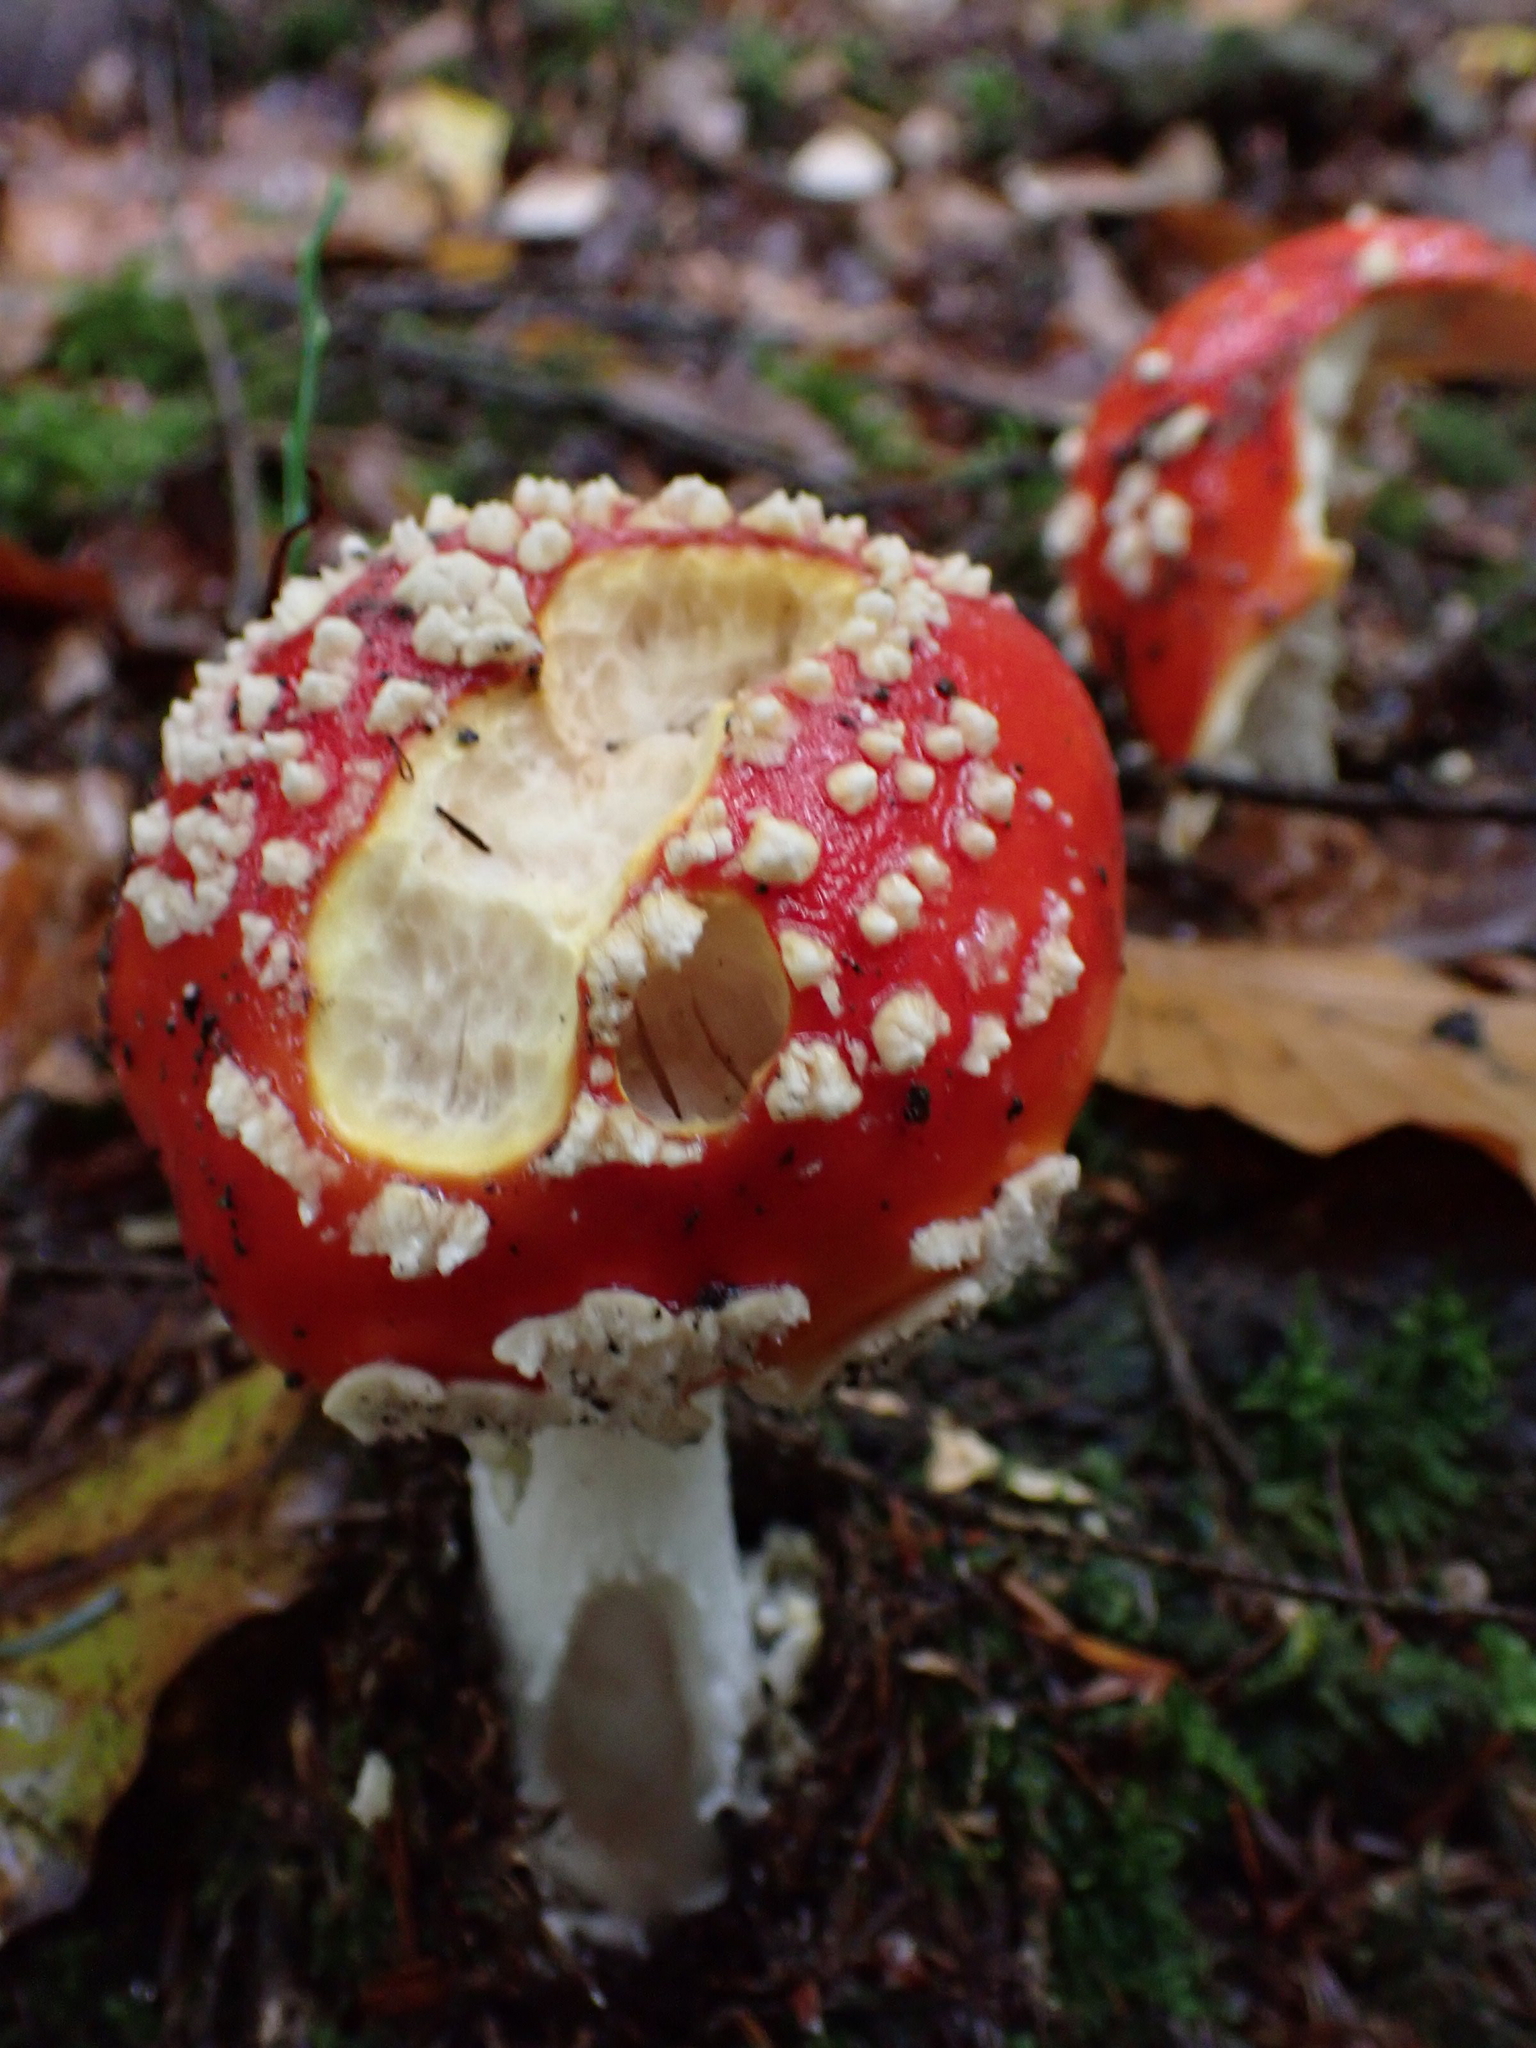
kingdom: Fungi
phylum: Basidiomycota
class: Agaricomycetes
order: Agaricales
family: Amanitaceae
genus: Amanita
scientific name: Amanita muscaria
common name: Fly agaric
